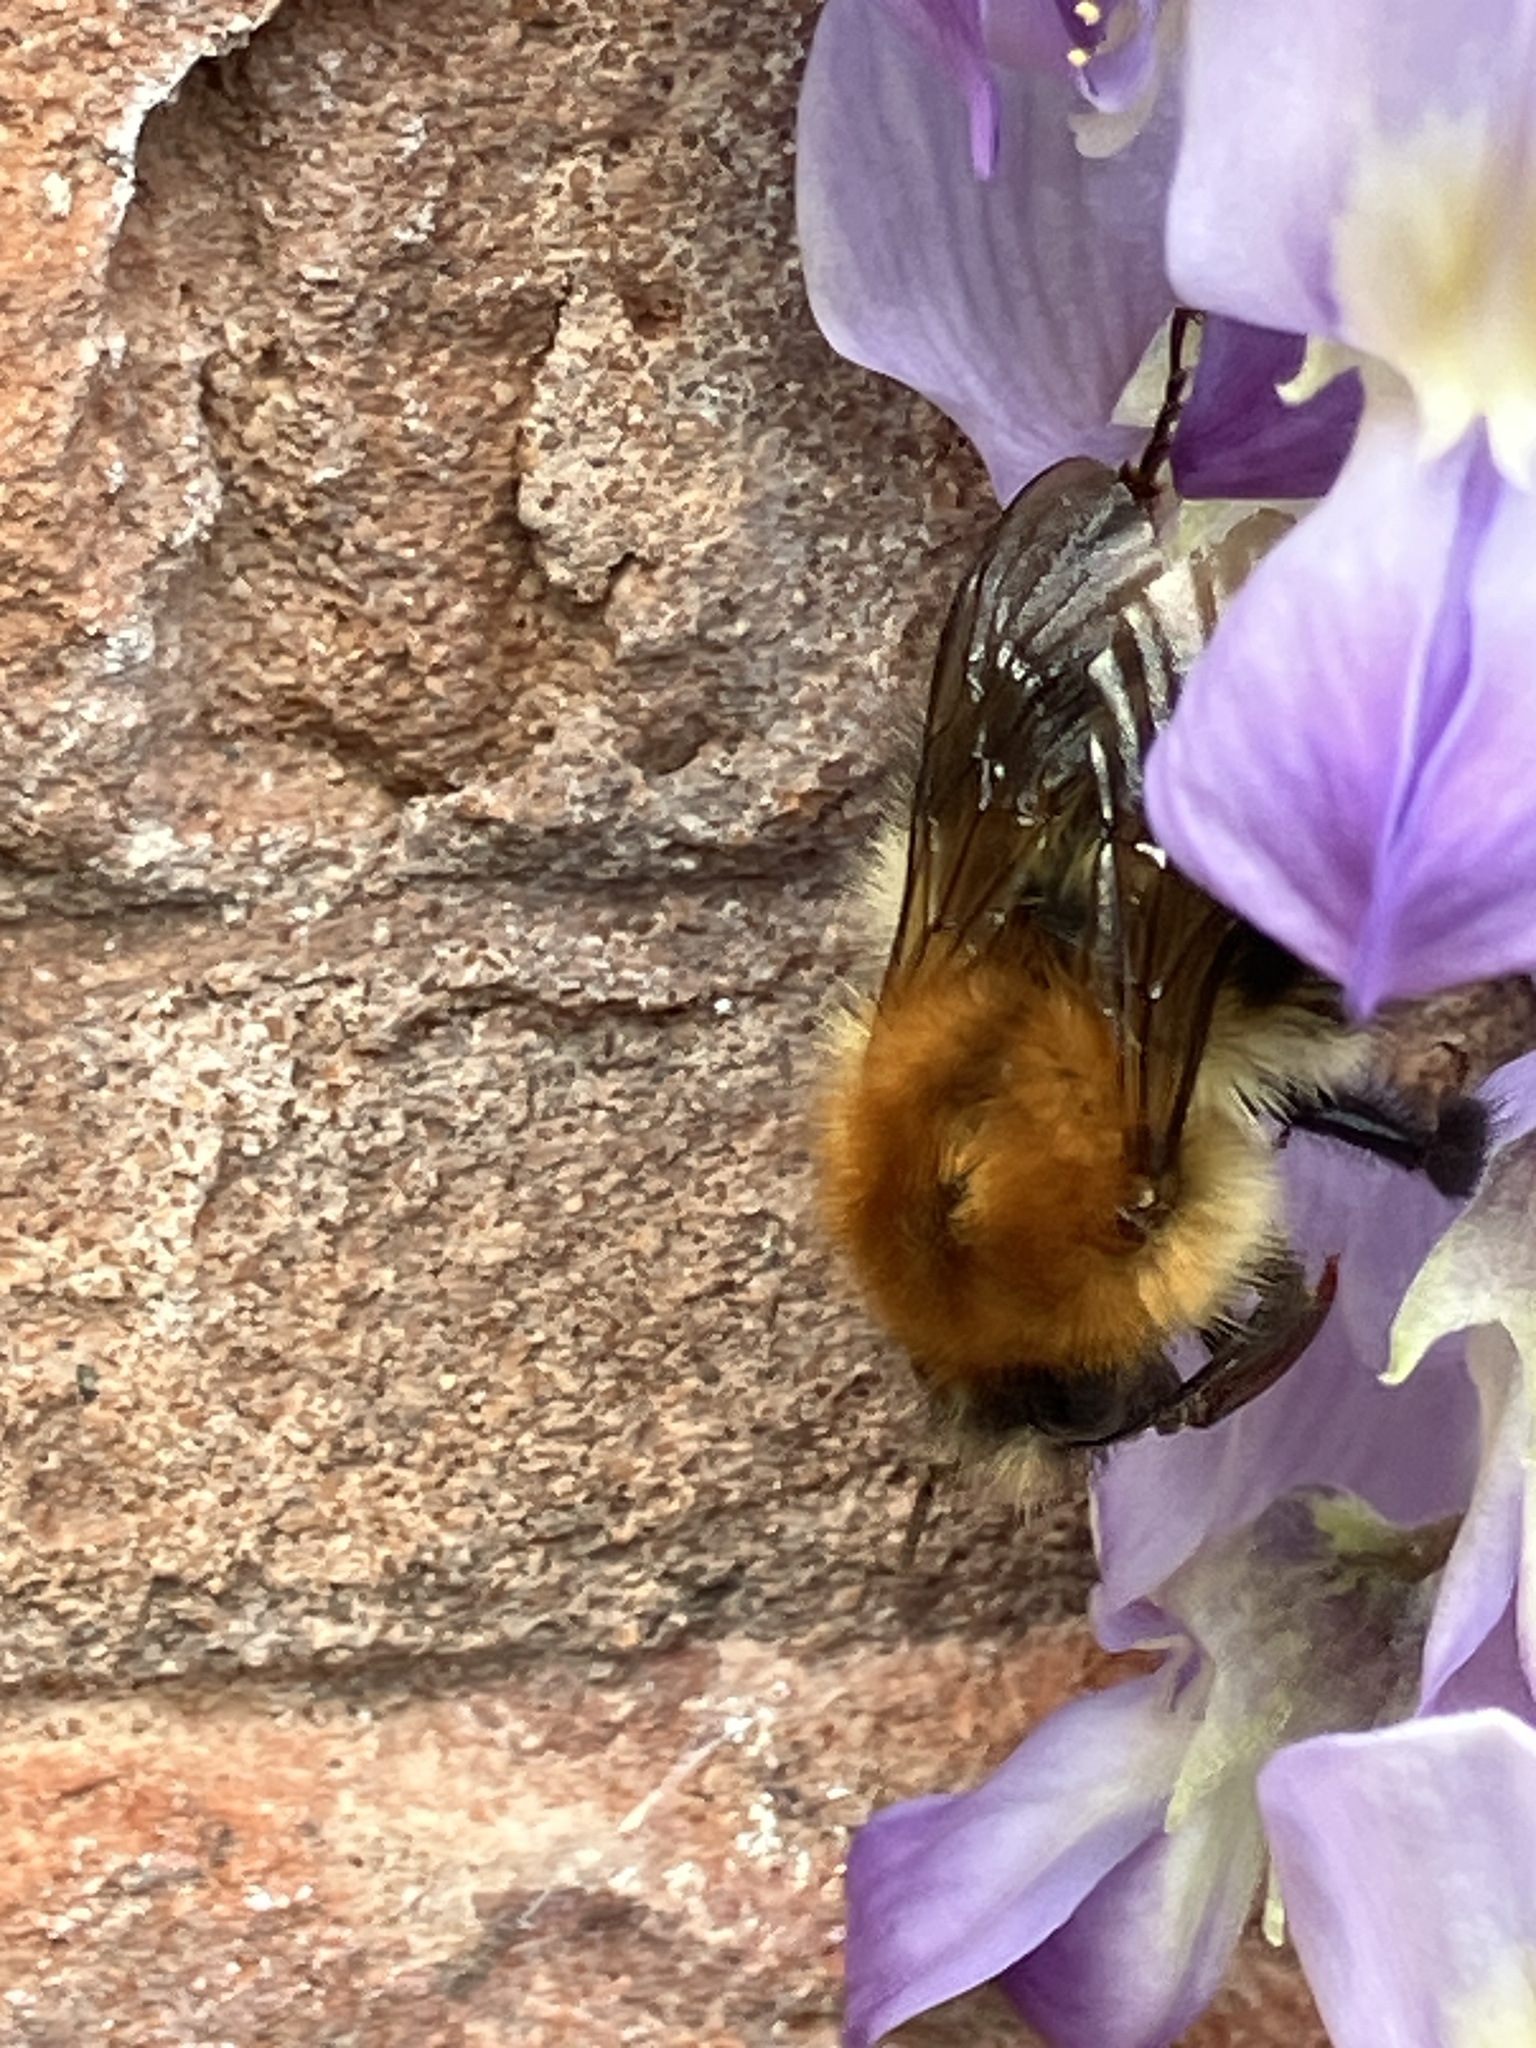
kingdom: Animalia
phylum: Arthropoda
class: Insecta
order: Hymenoptera
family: Apidae
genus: Bombus
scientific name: Bombus pascuorum
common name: Common carder bee
